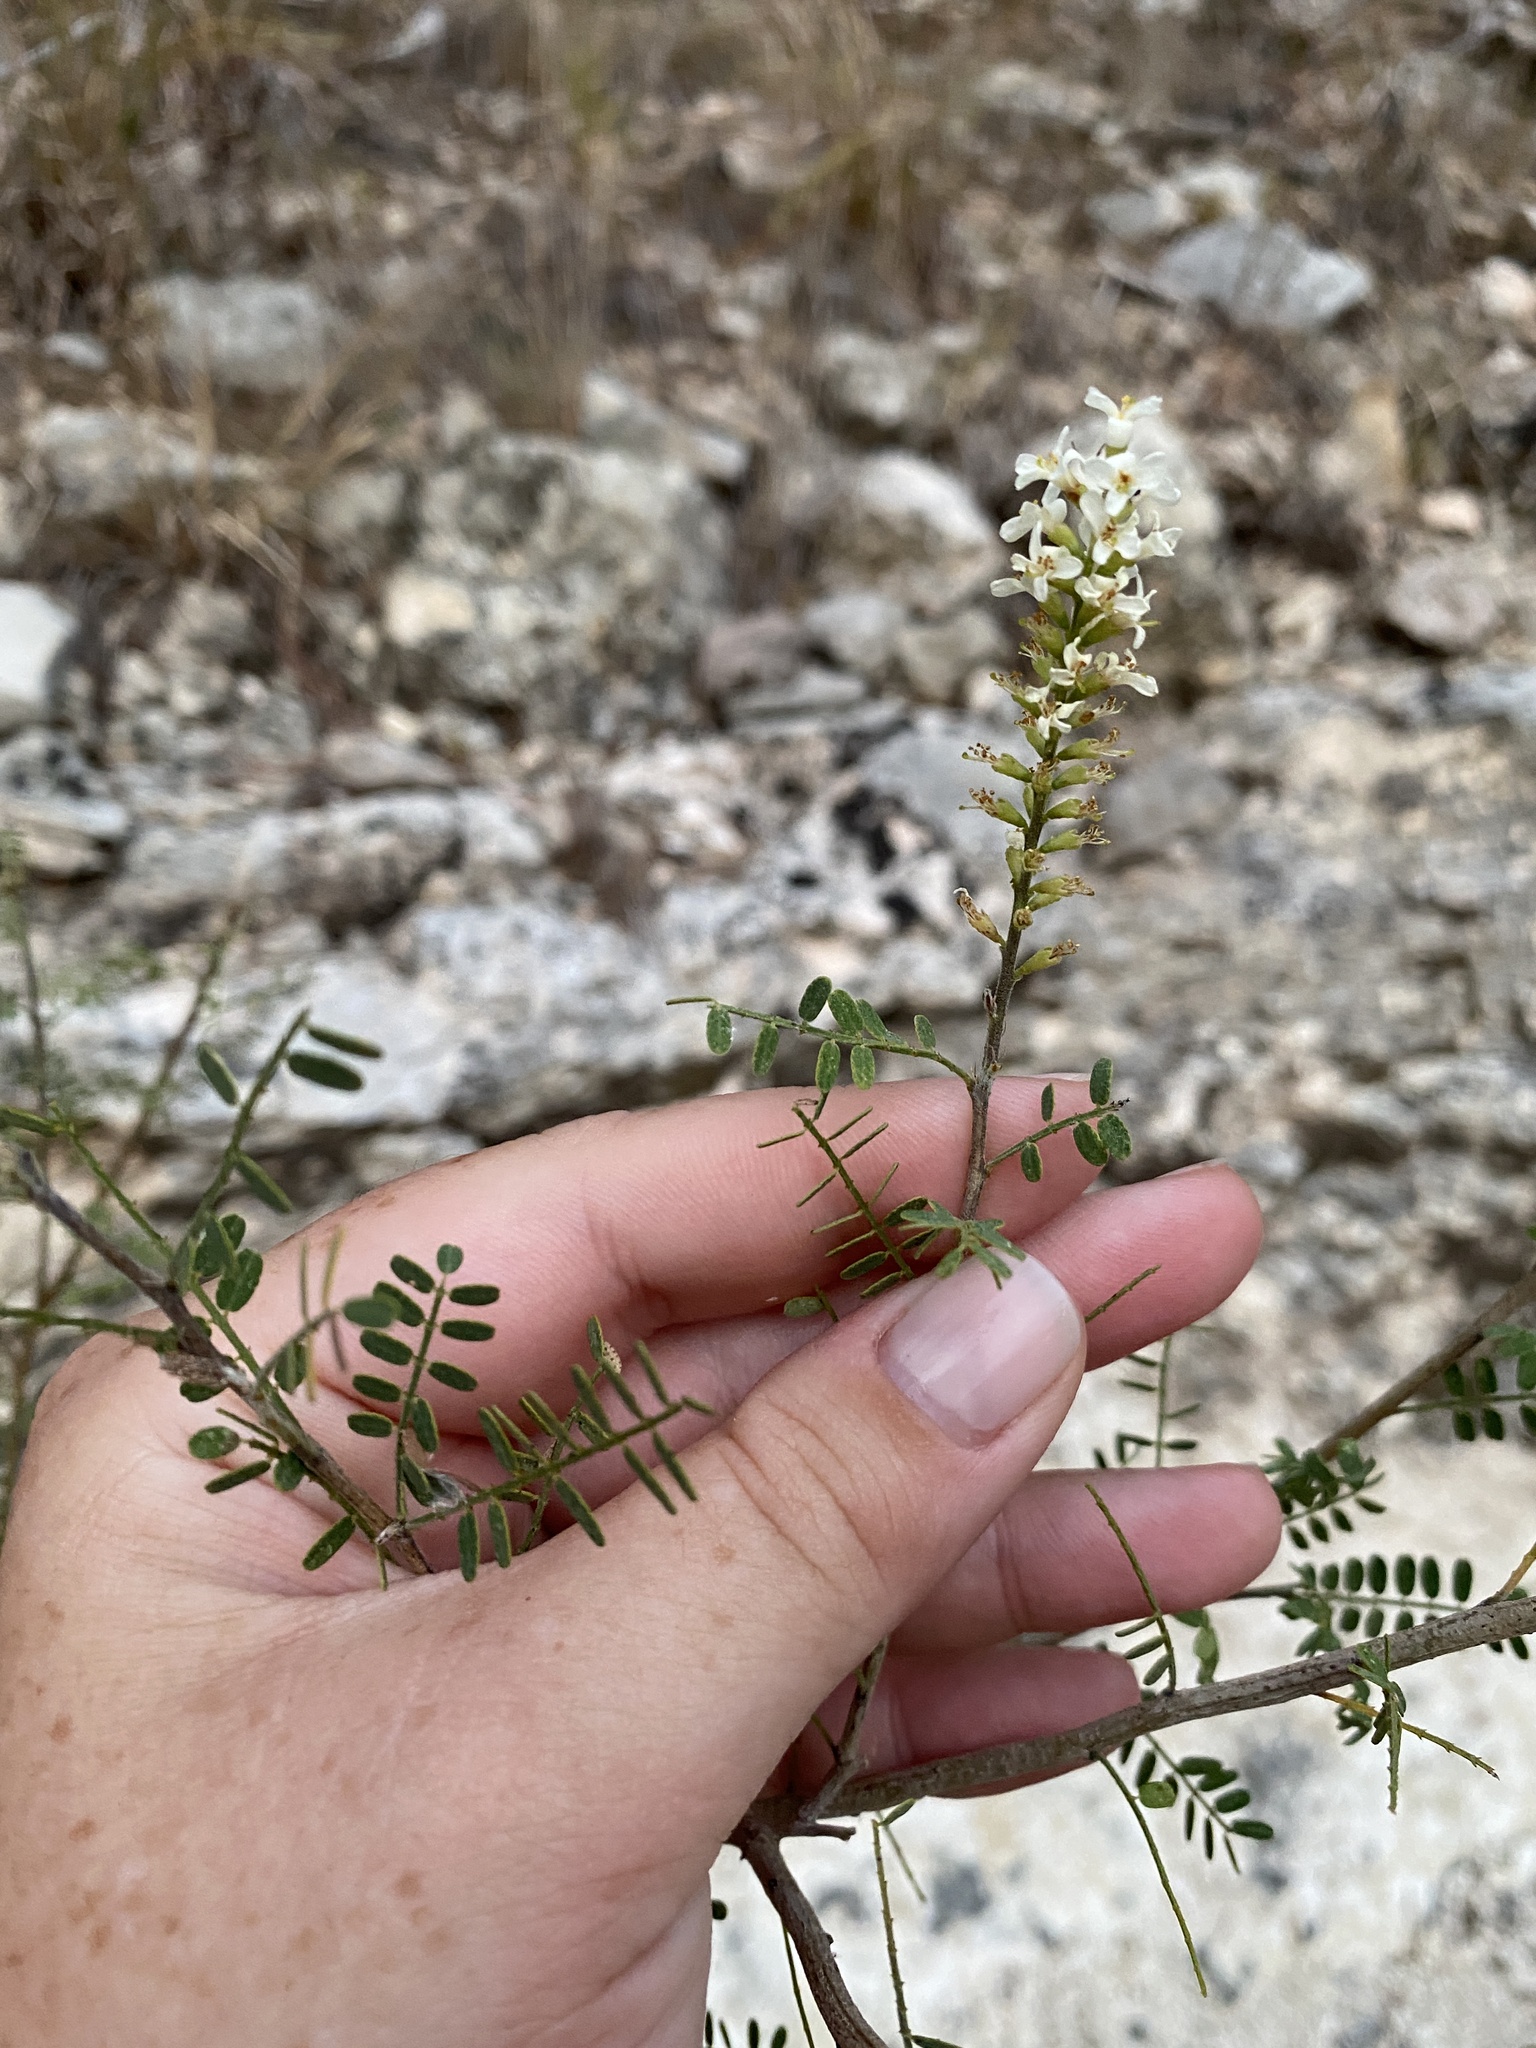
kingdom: Plantae
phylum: Tracheophyta
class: Magnoliopsida
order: Fabales
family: Fabaceae
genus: Eysenhardtia
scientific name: Eysenhardtia texana
